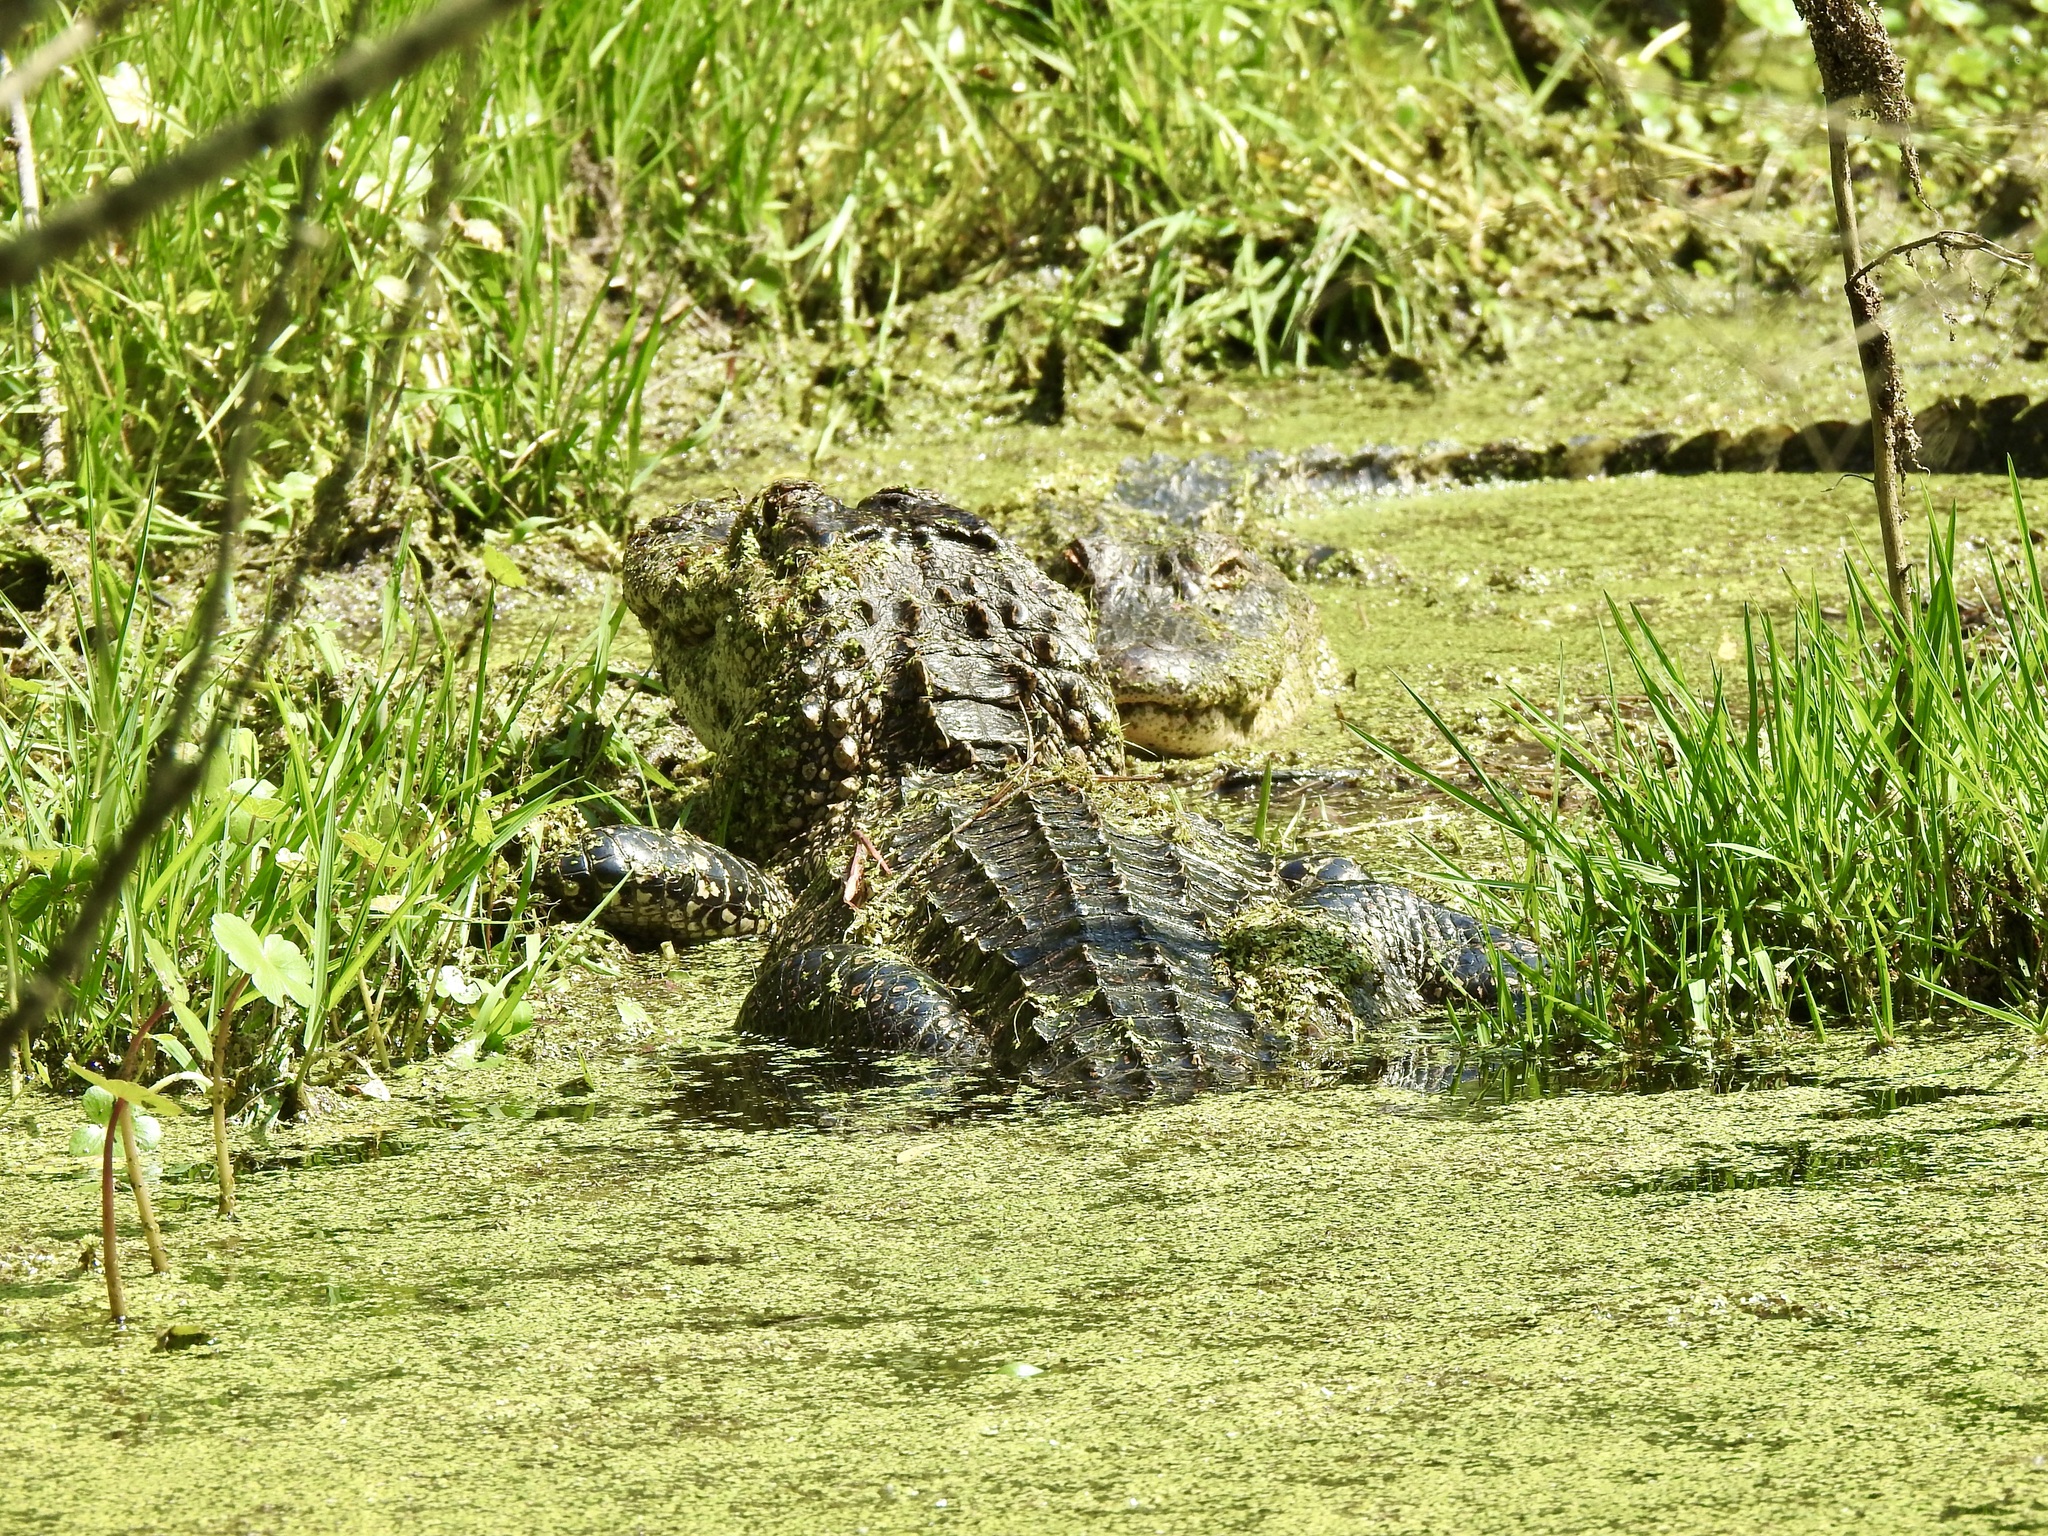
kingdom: Animalia
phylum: Chordata
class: Crocodylia
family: Alligatoridae
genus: Alligator
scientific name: Alligator mississippiensis
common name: American alligator
